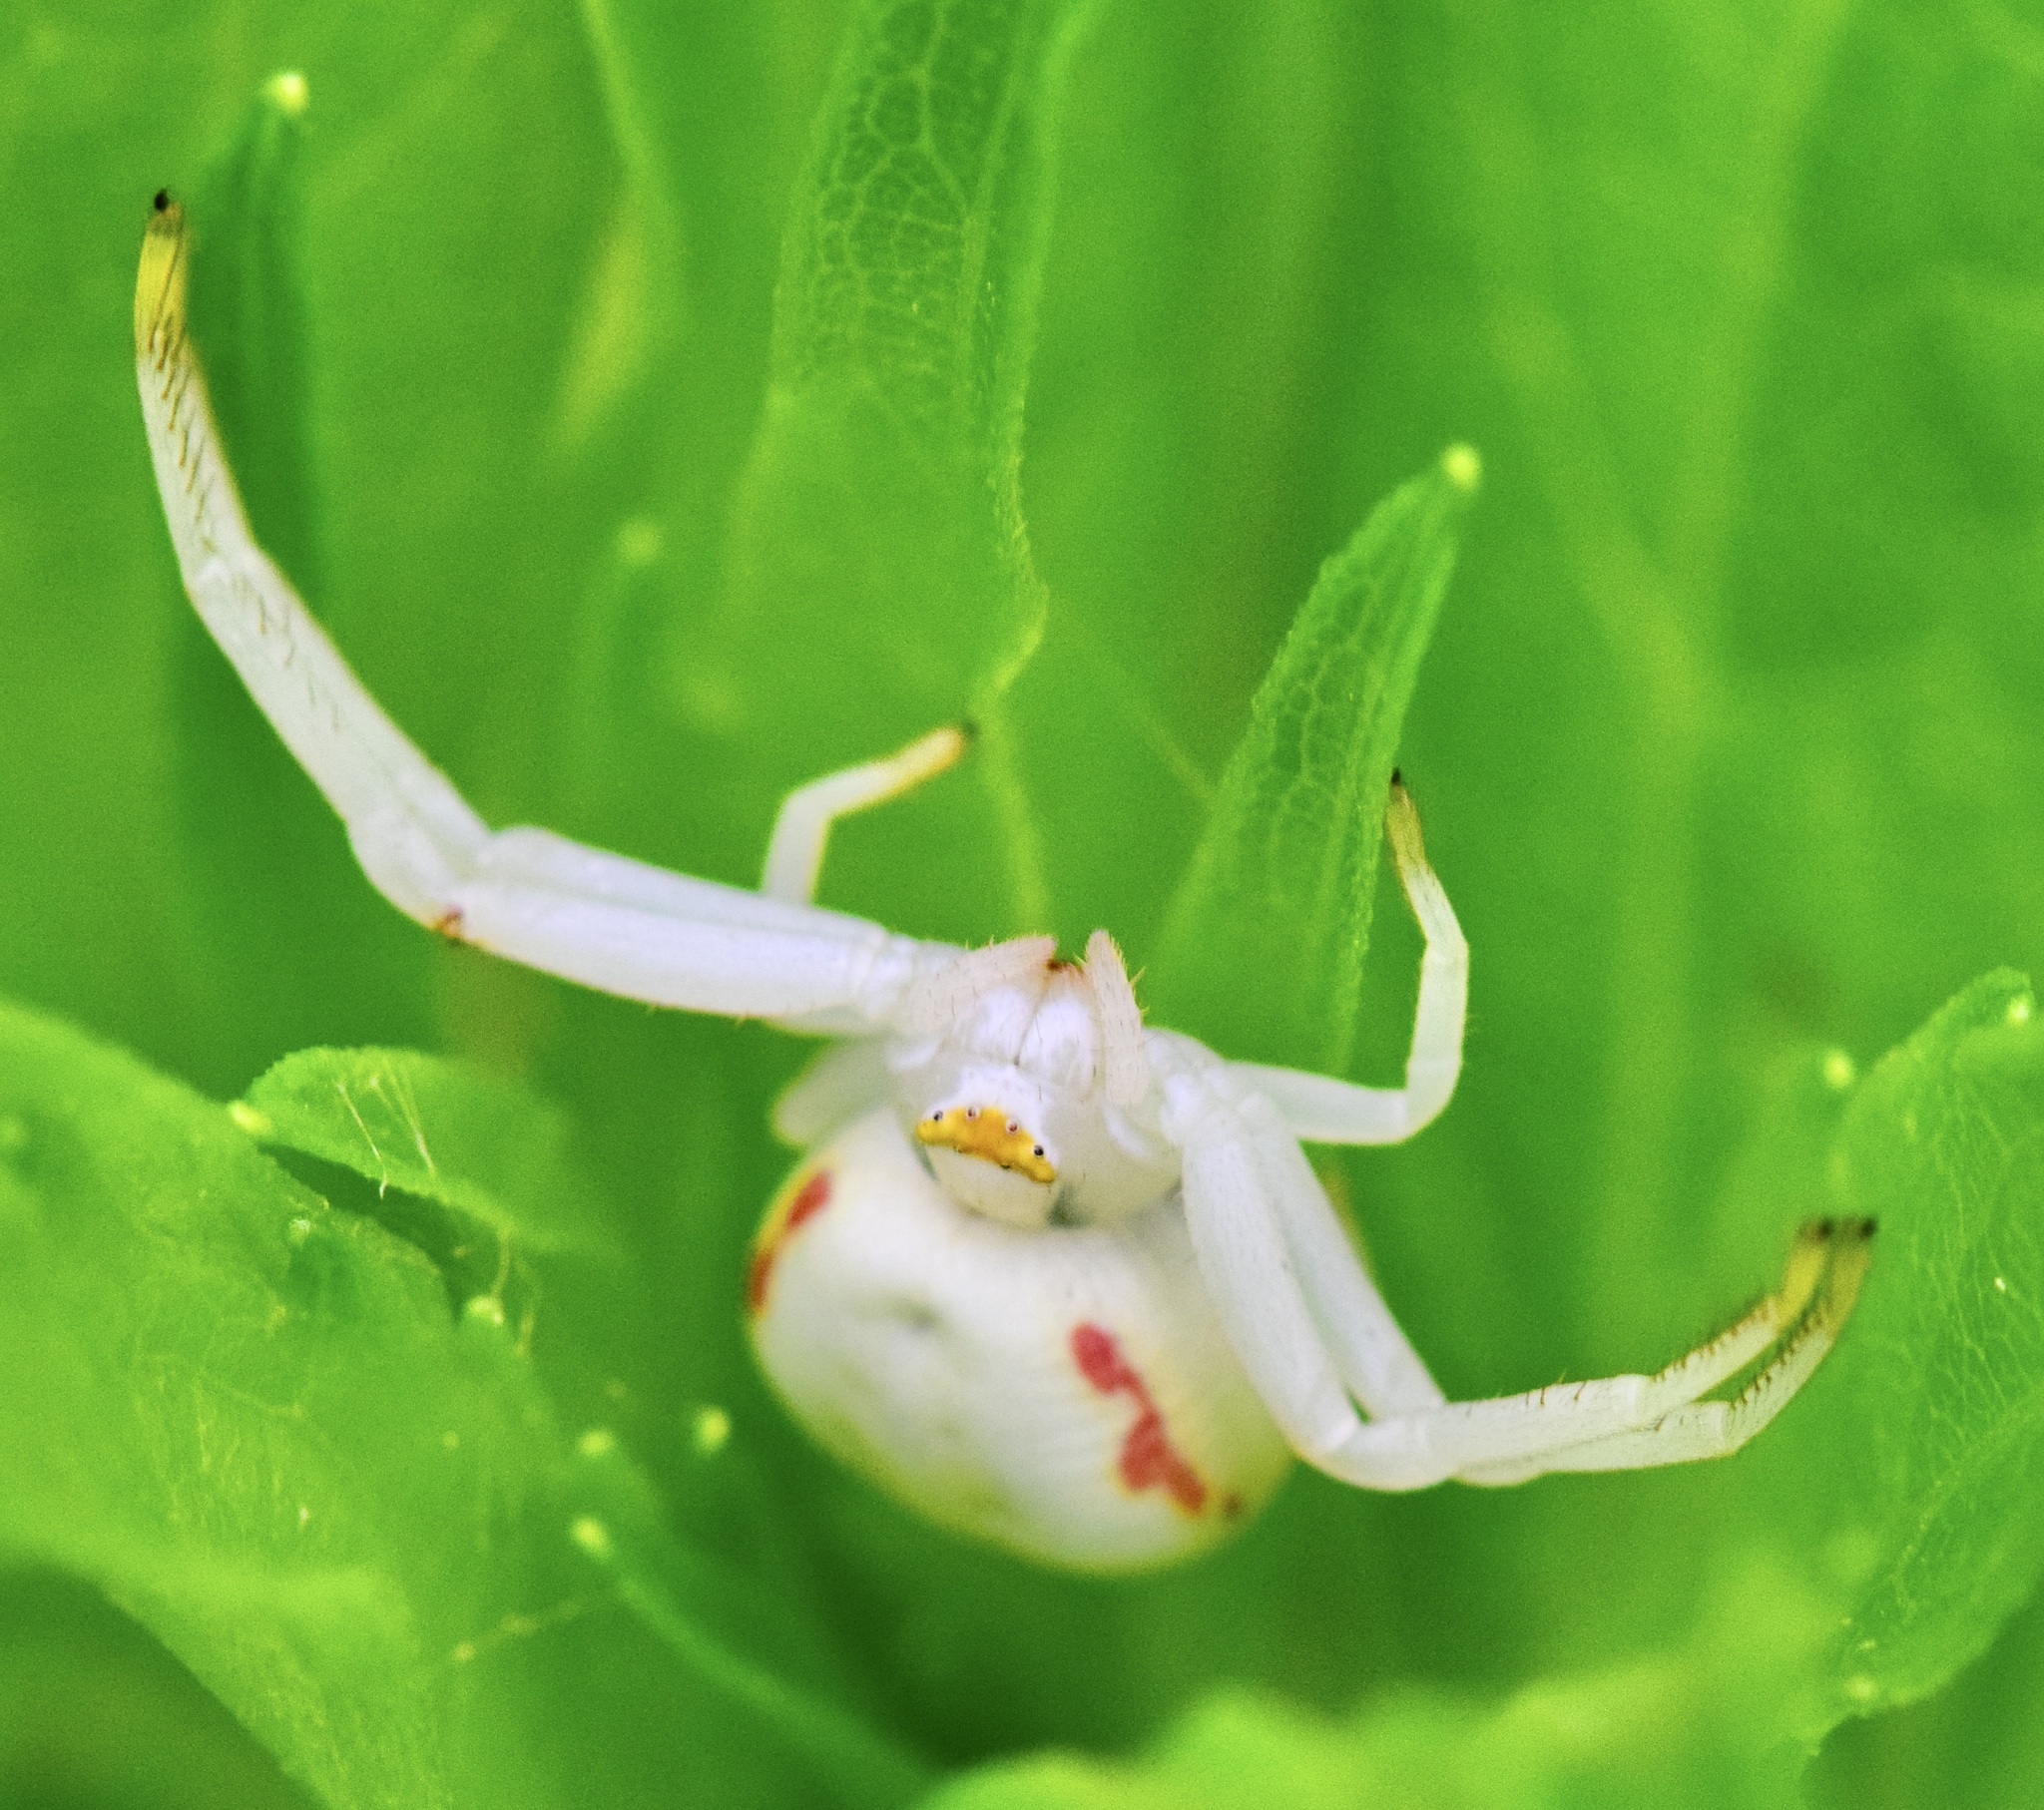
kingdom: Animalia
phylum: Arthropoda
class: Arachnida
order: Araneae
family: Thomisidae
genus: Misumena
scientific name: Misumena vatia
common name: Goldenrod crab spider
